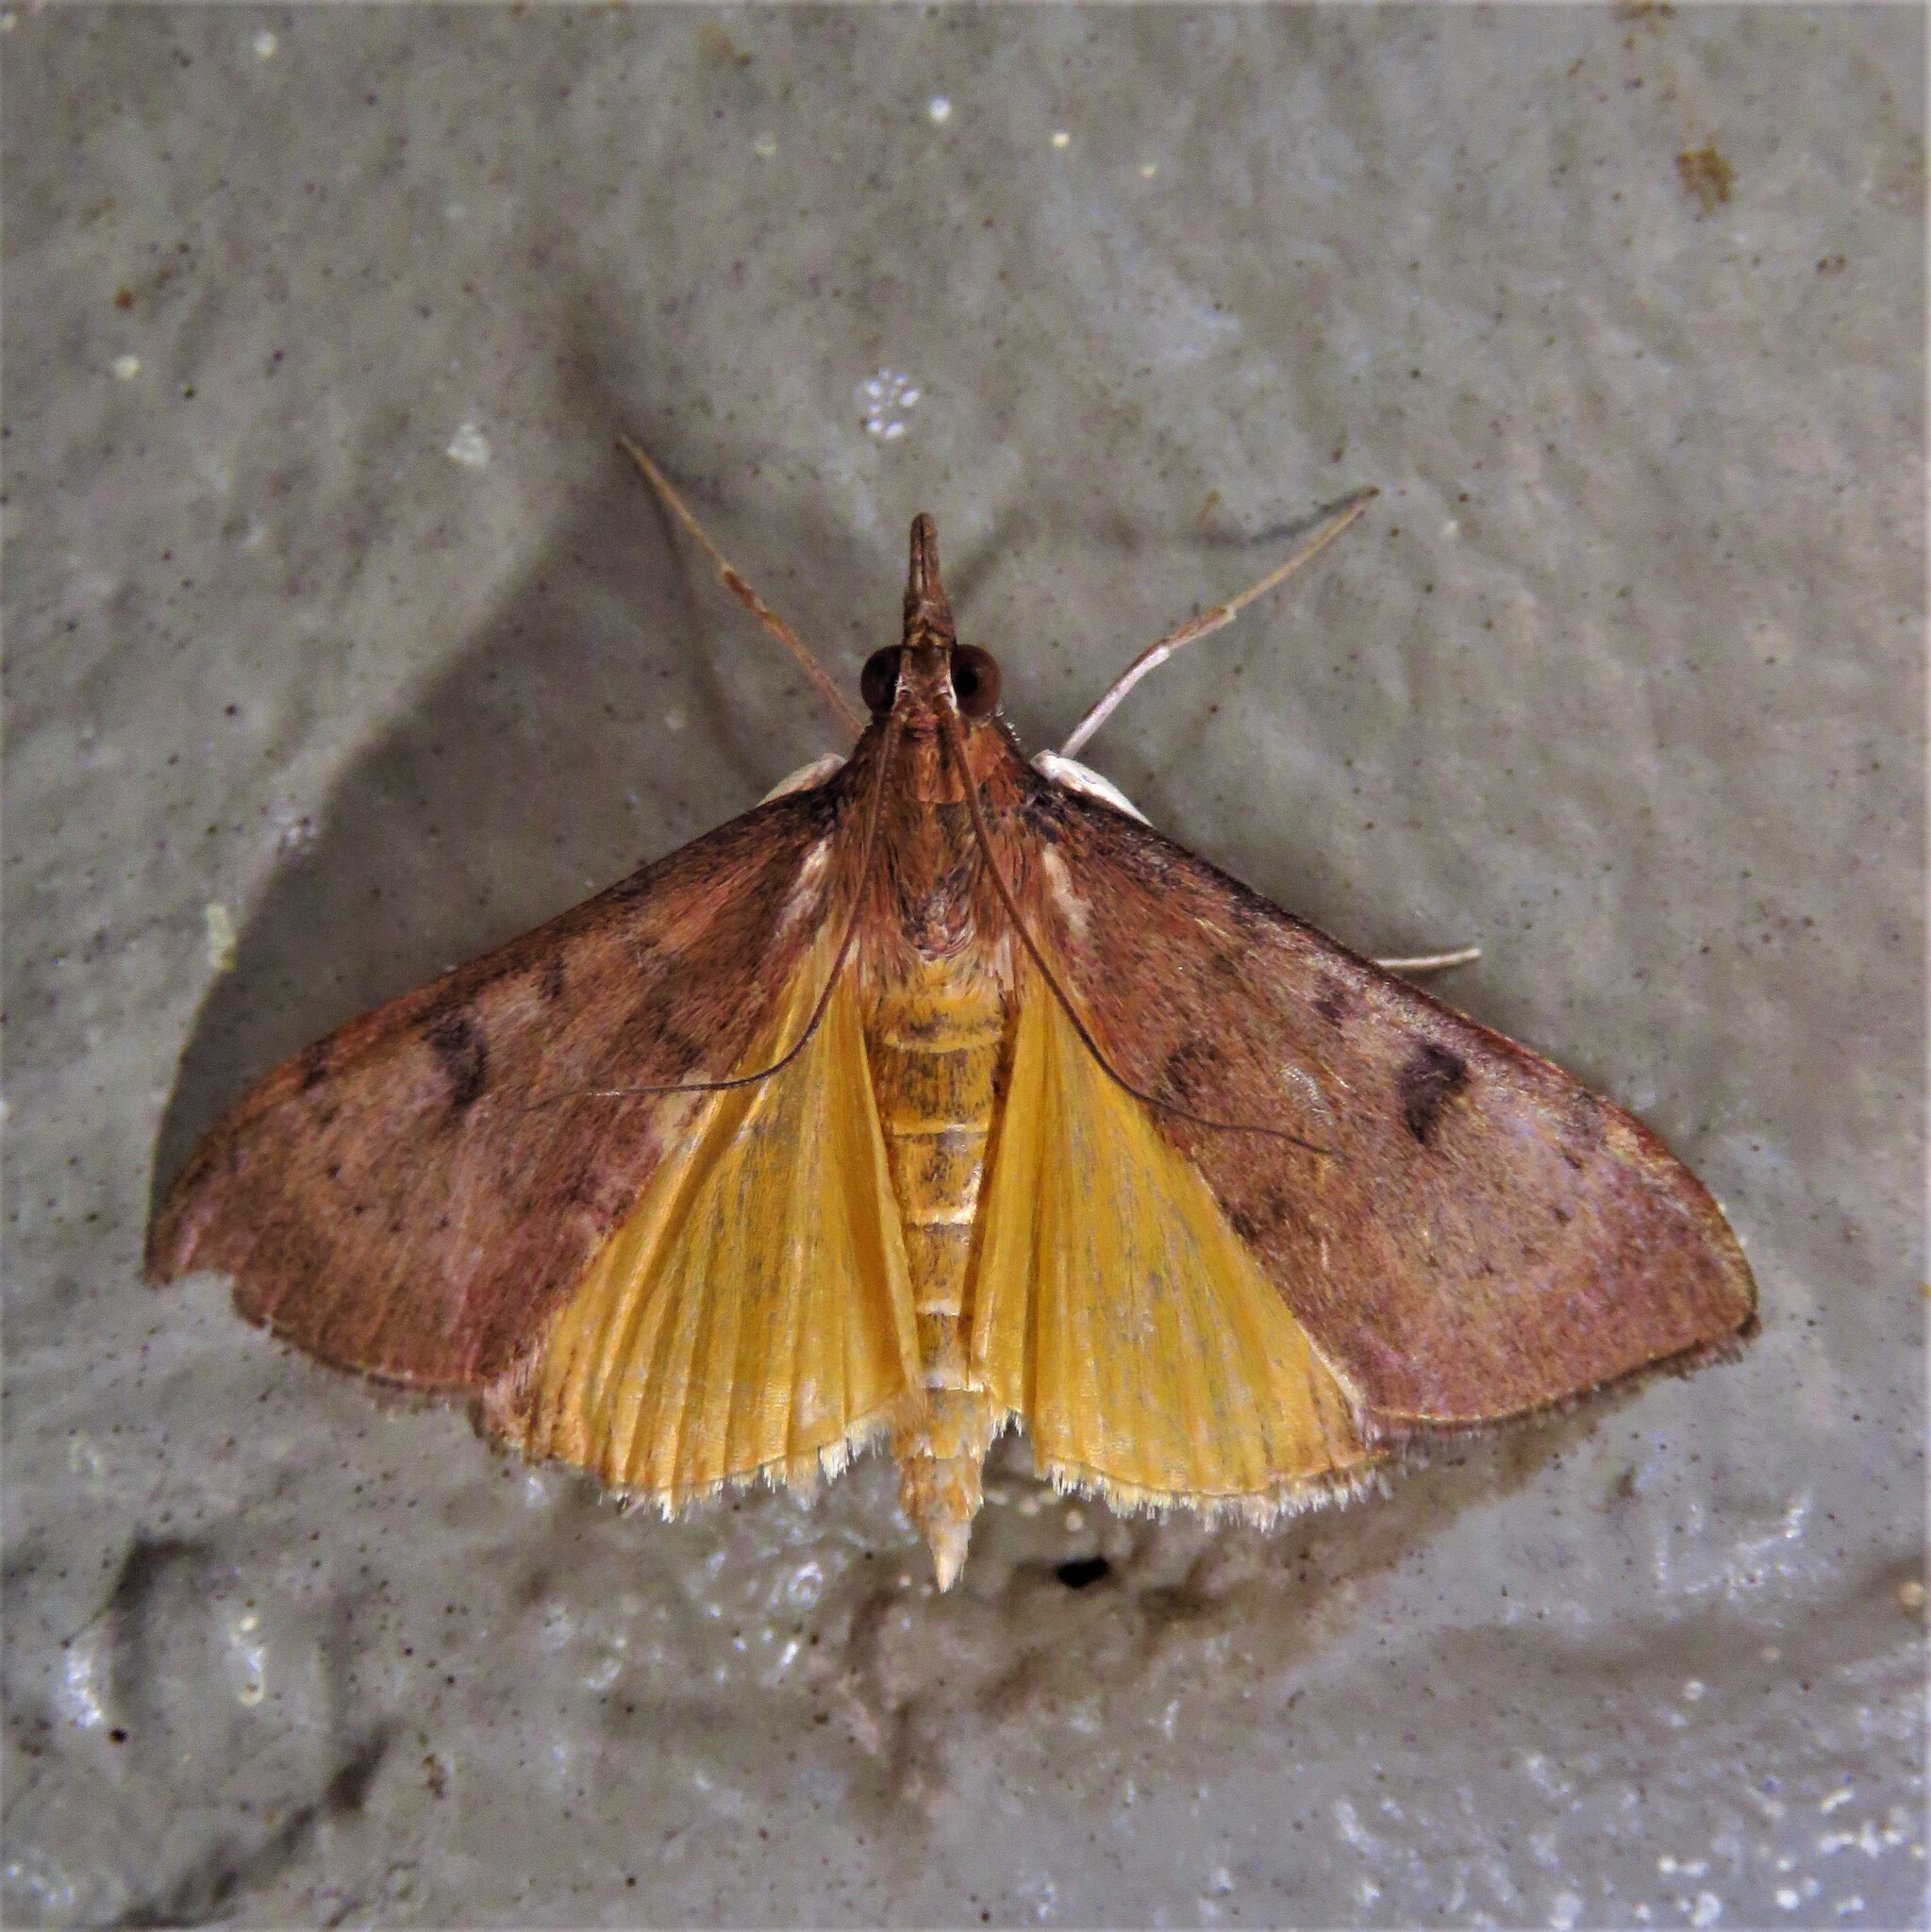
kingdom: Animalia
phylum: Arthropoda
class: Insecta
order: Lepidoptera
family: Crambidae
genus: Uresiphita
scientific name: Uresiphita reversalis
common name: Genista broom moth
